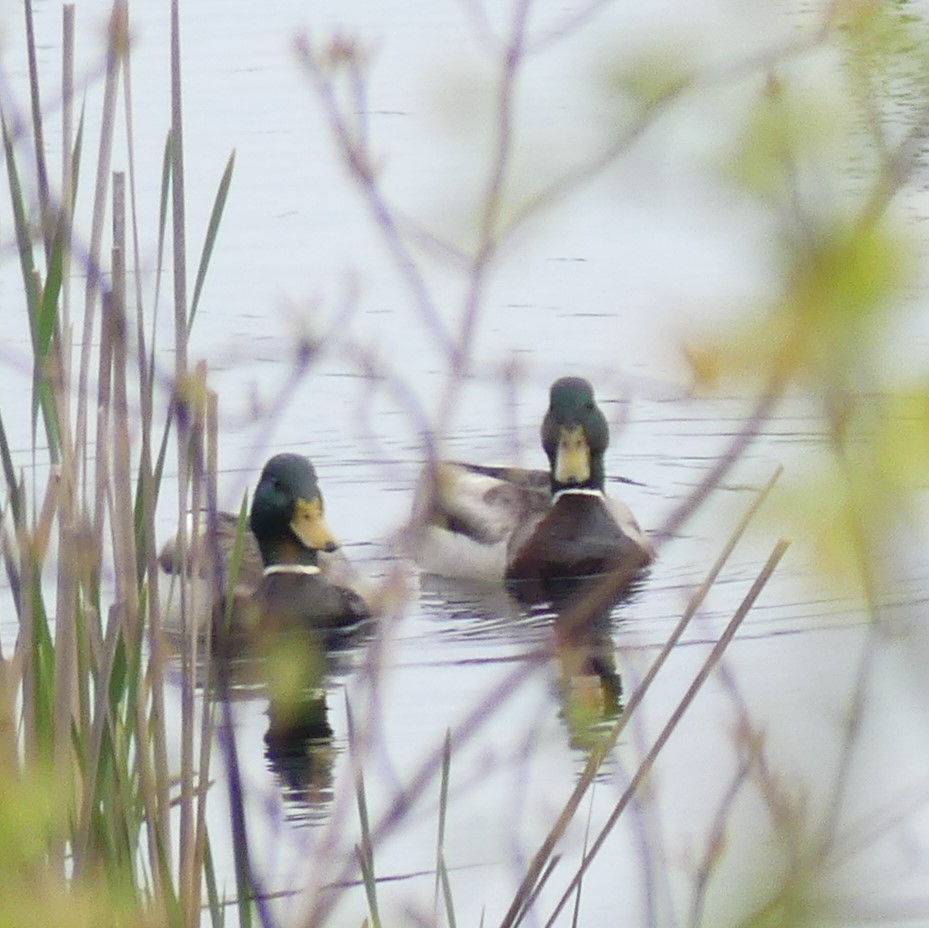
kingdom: Animalia
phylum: Chordata
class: Aves
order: Anseriformes
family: Anatidae
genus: Anas
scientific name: Anas platyrhynchos
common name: Mallard
